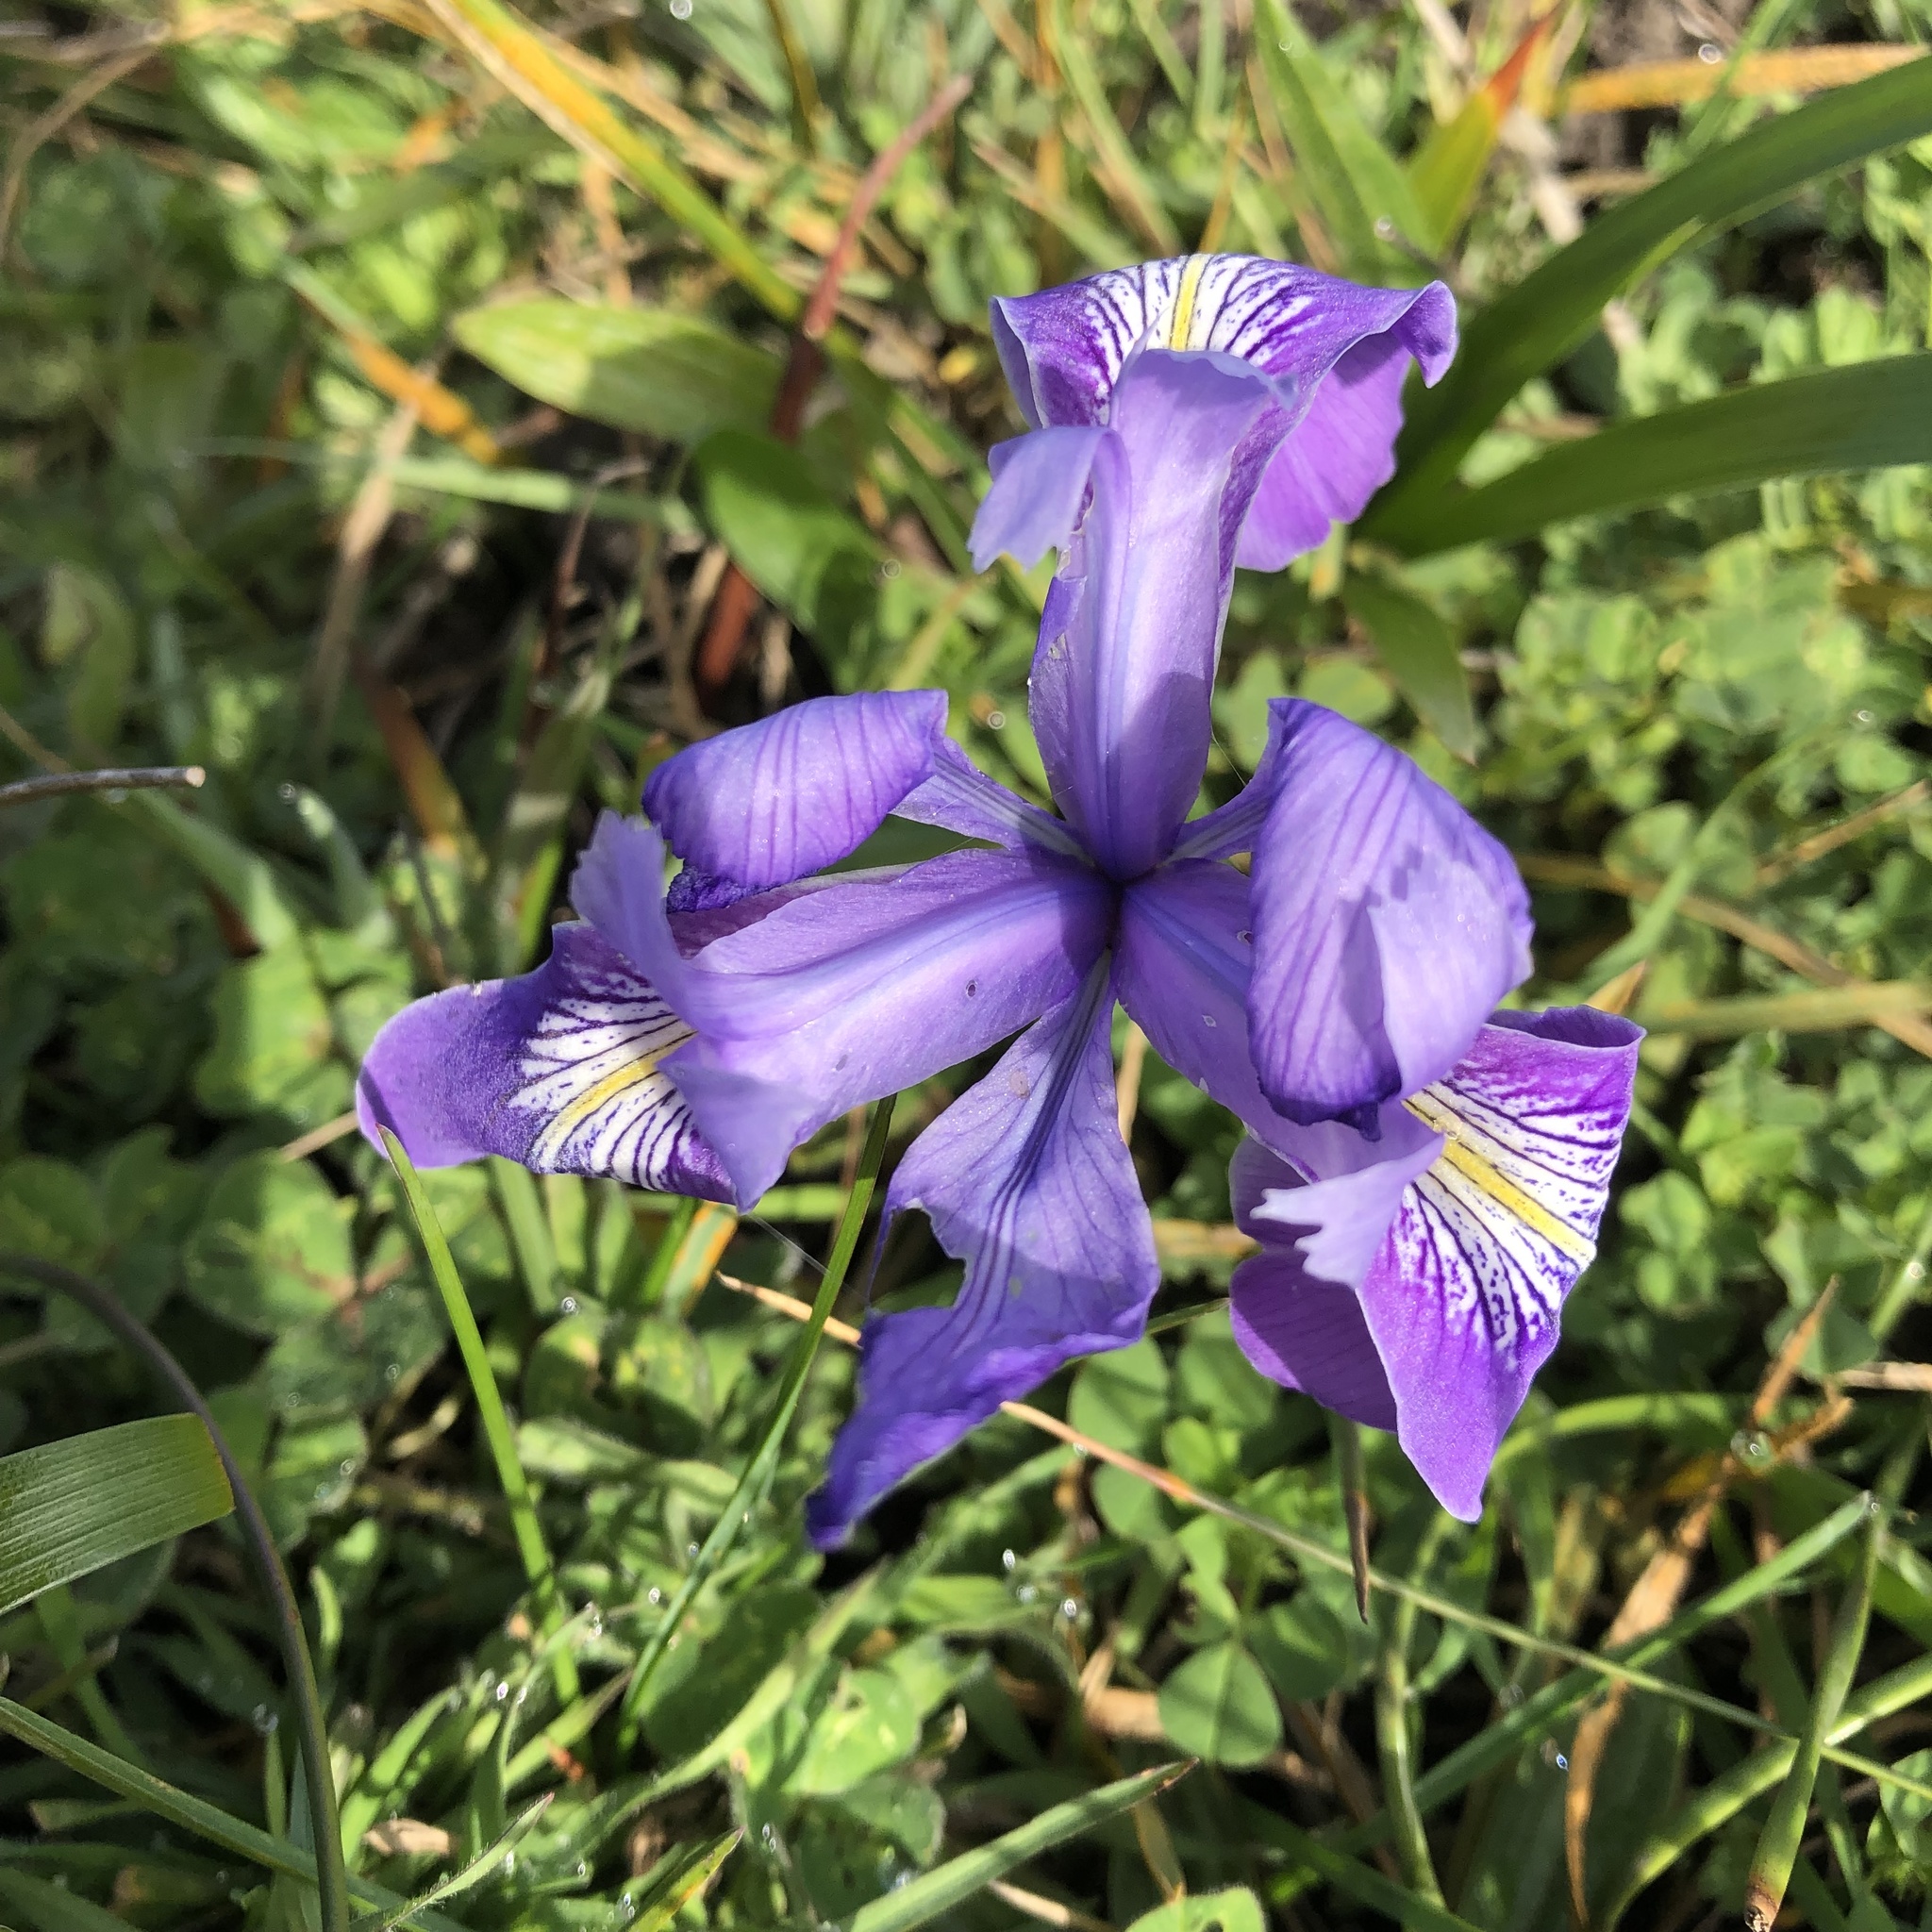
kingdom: Plantae
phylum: Tracheophyta
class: Liliopsida
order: Asparagales
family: Iridaceae
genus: Iris
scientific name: Iris douglasiana
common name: Marin iris
